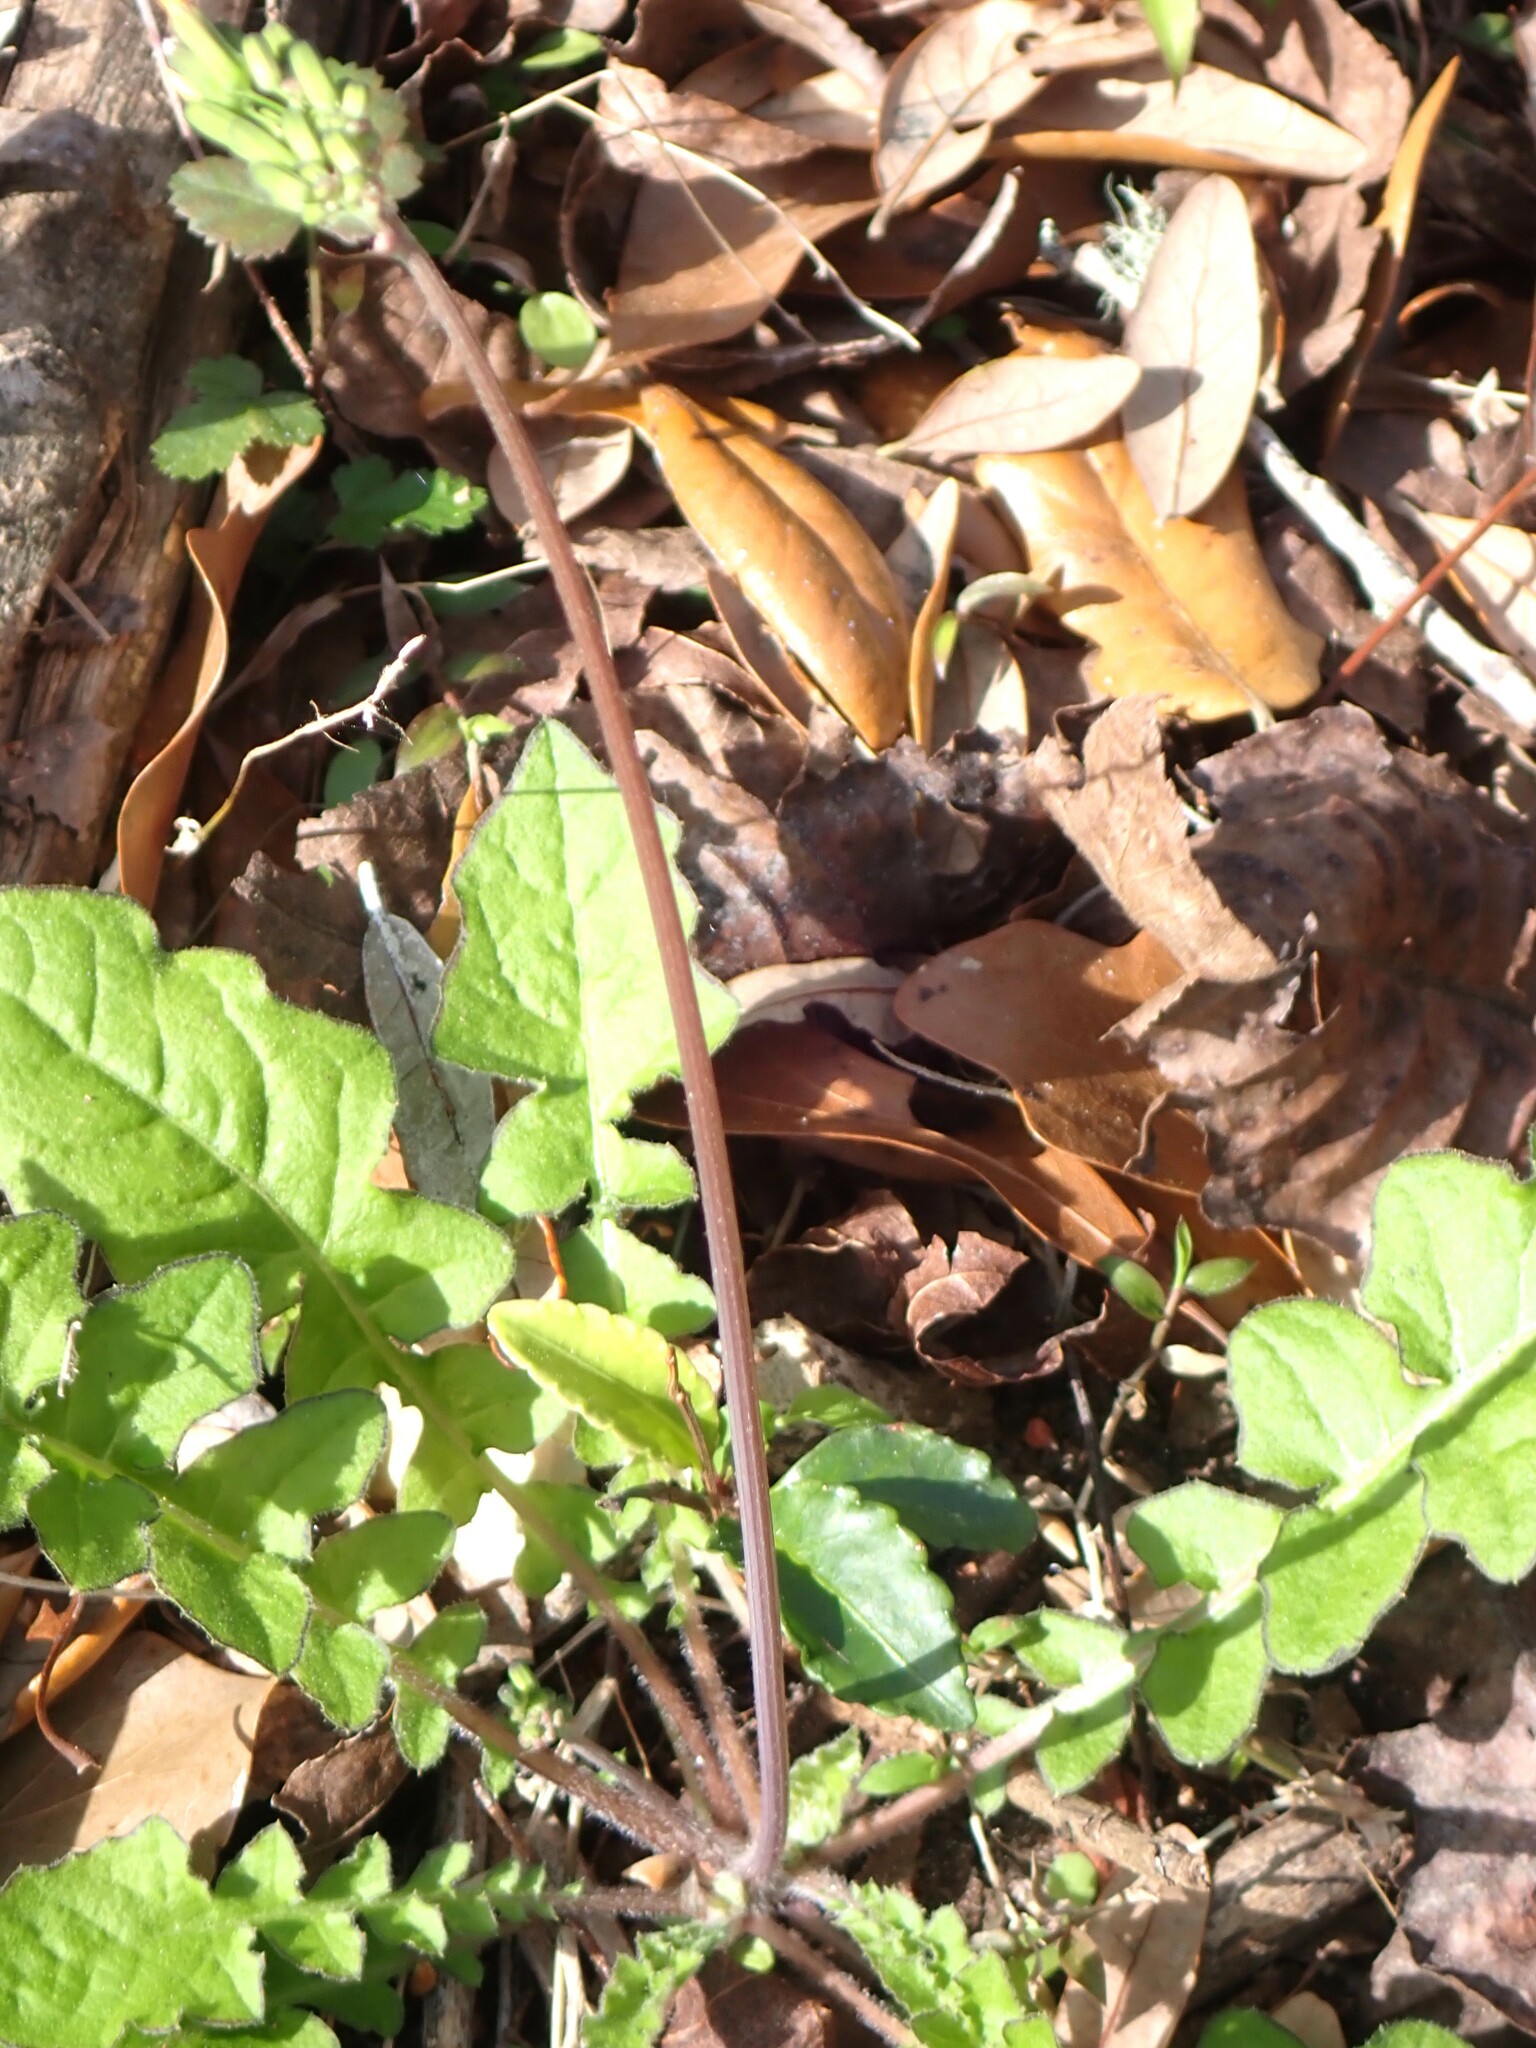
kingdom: Plantae
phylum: Tracheophyta
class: Magnoliopsida
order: Asterales
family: Asteraceae
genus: Youngia
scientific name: Youngia japonica
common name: Oriental false hawksbeard
